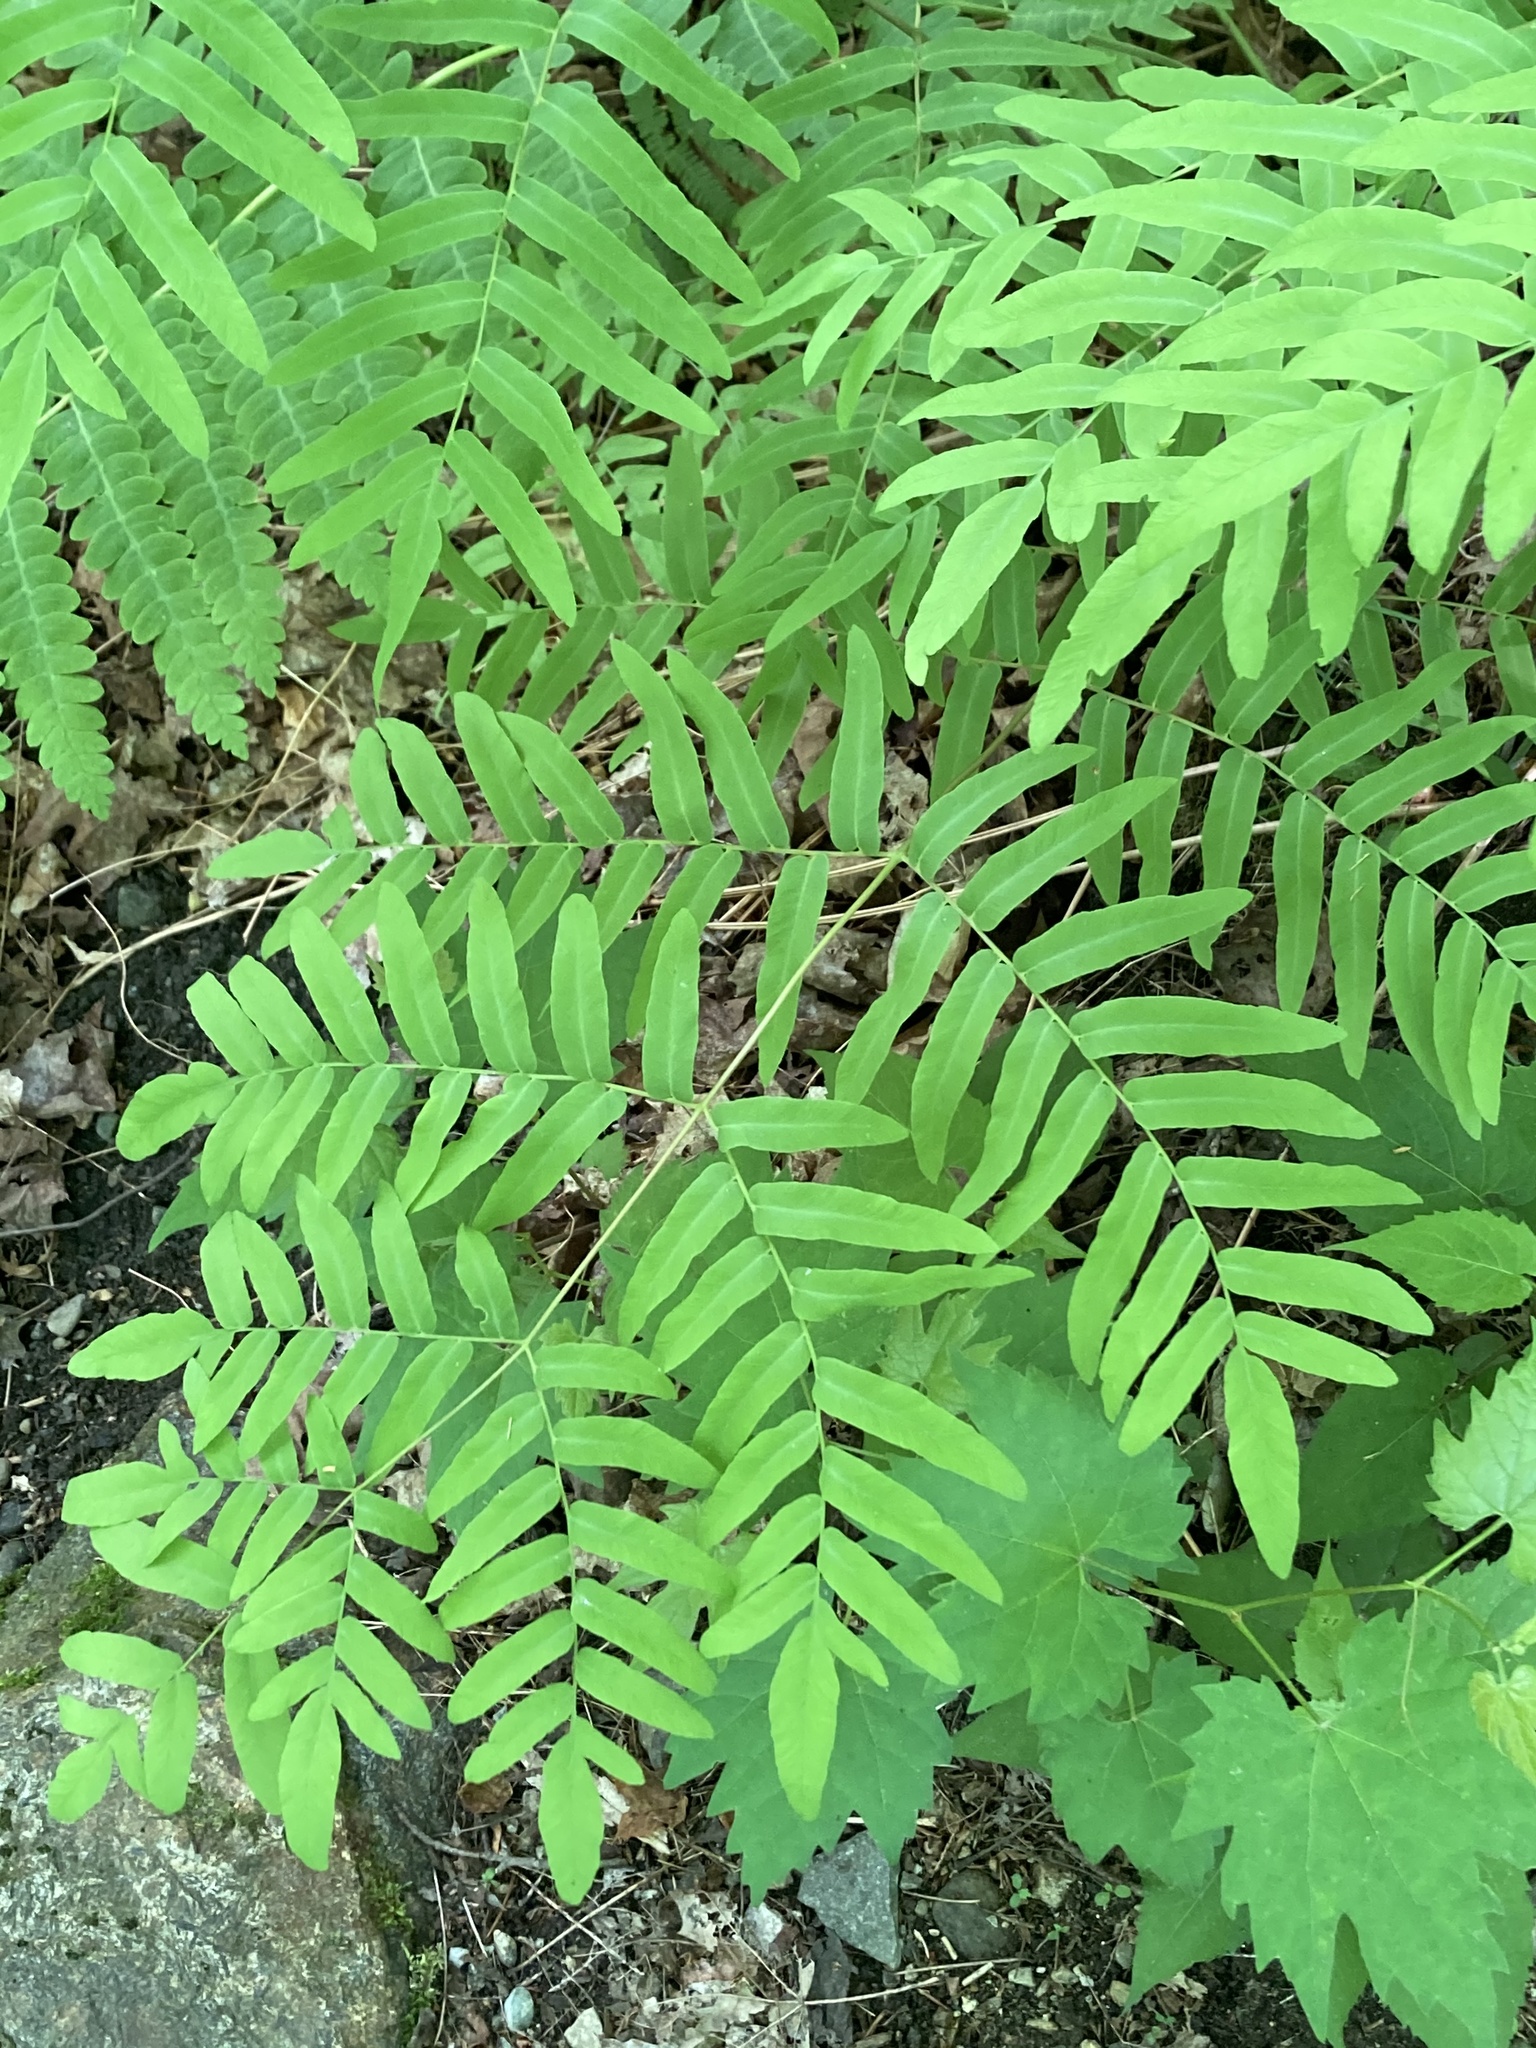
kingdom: Plantae
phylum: Tracheophyta
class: Polypodiopsida
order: Osmundales
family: Osmundaceae
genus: Osmunda
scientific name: Osmunda spectabilis
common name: American royal fern
